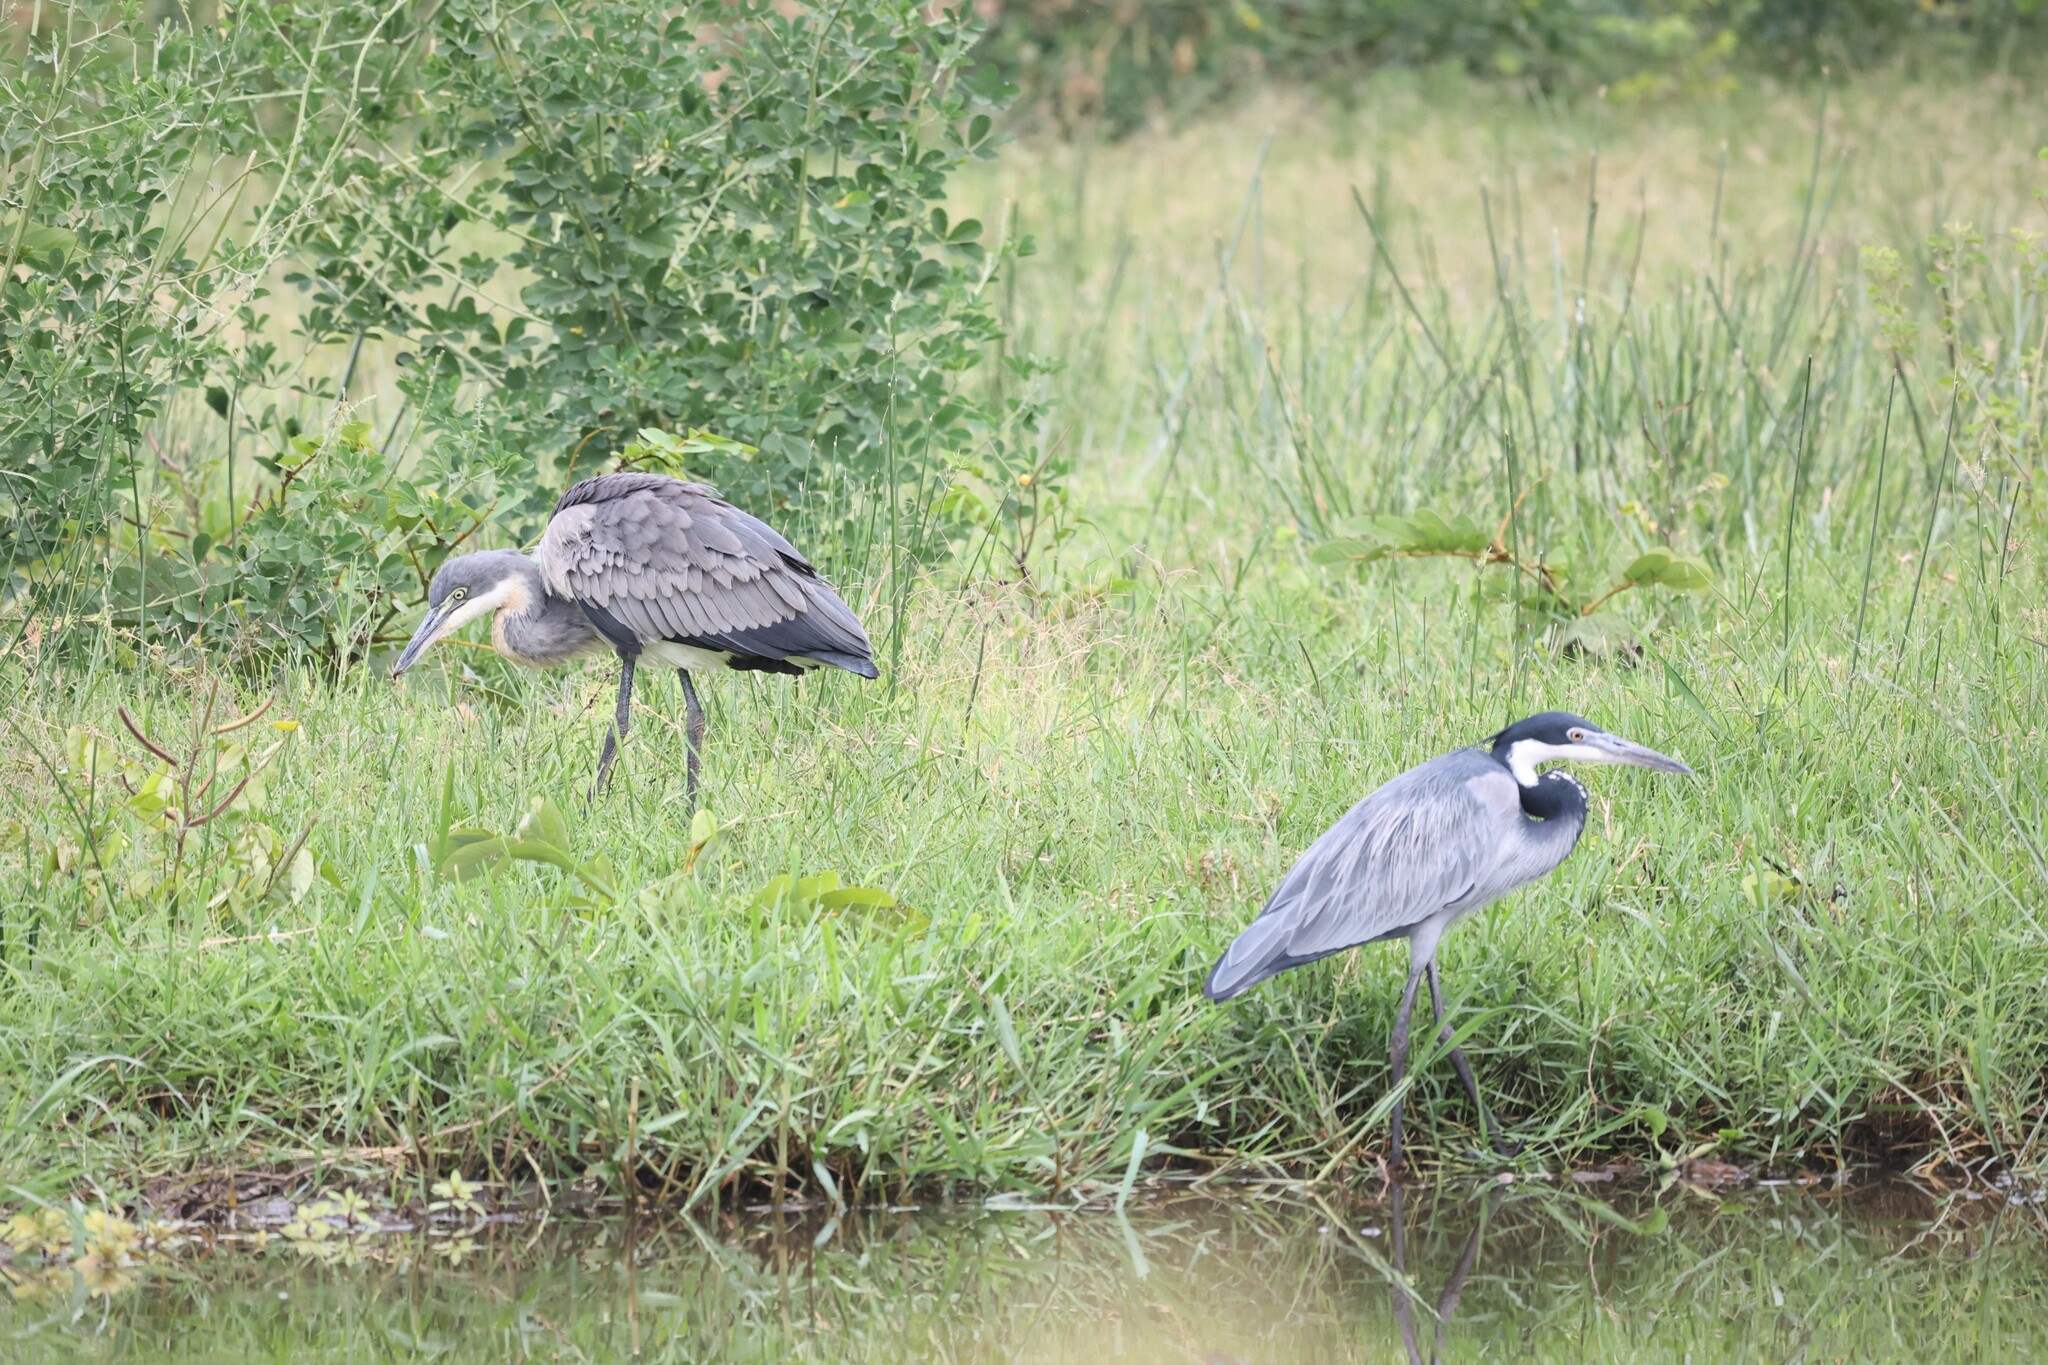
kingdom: Animalia
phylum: Chordata
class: Aves
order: Pelecaniformes
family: Ardeidae
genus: Ardea
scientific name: Ardea melanocephala
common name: Black-headed heron
